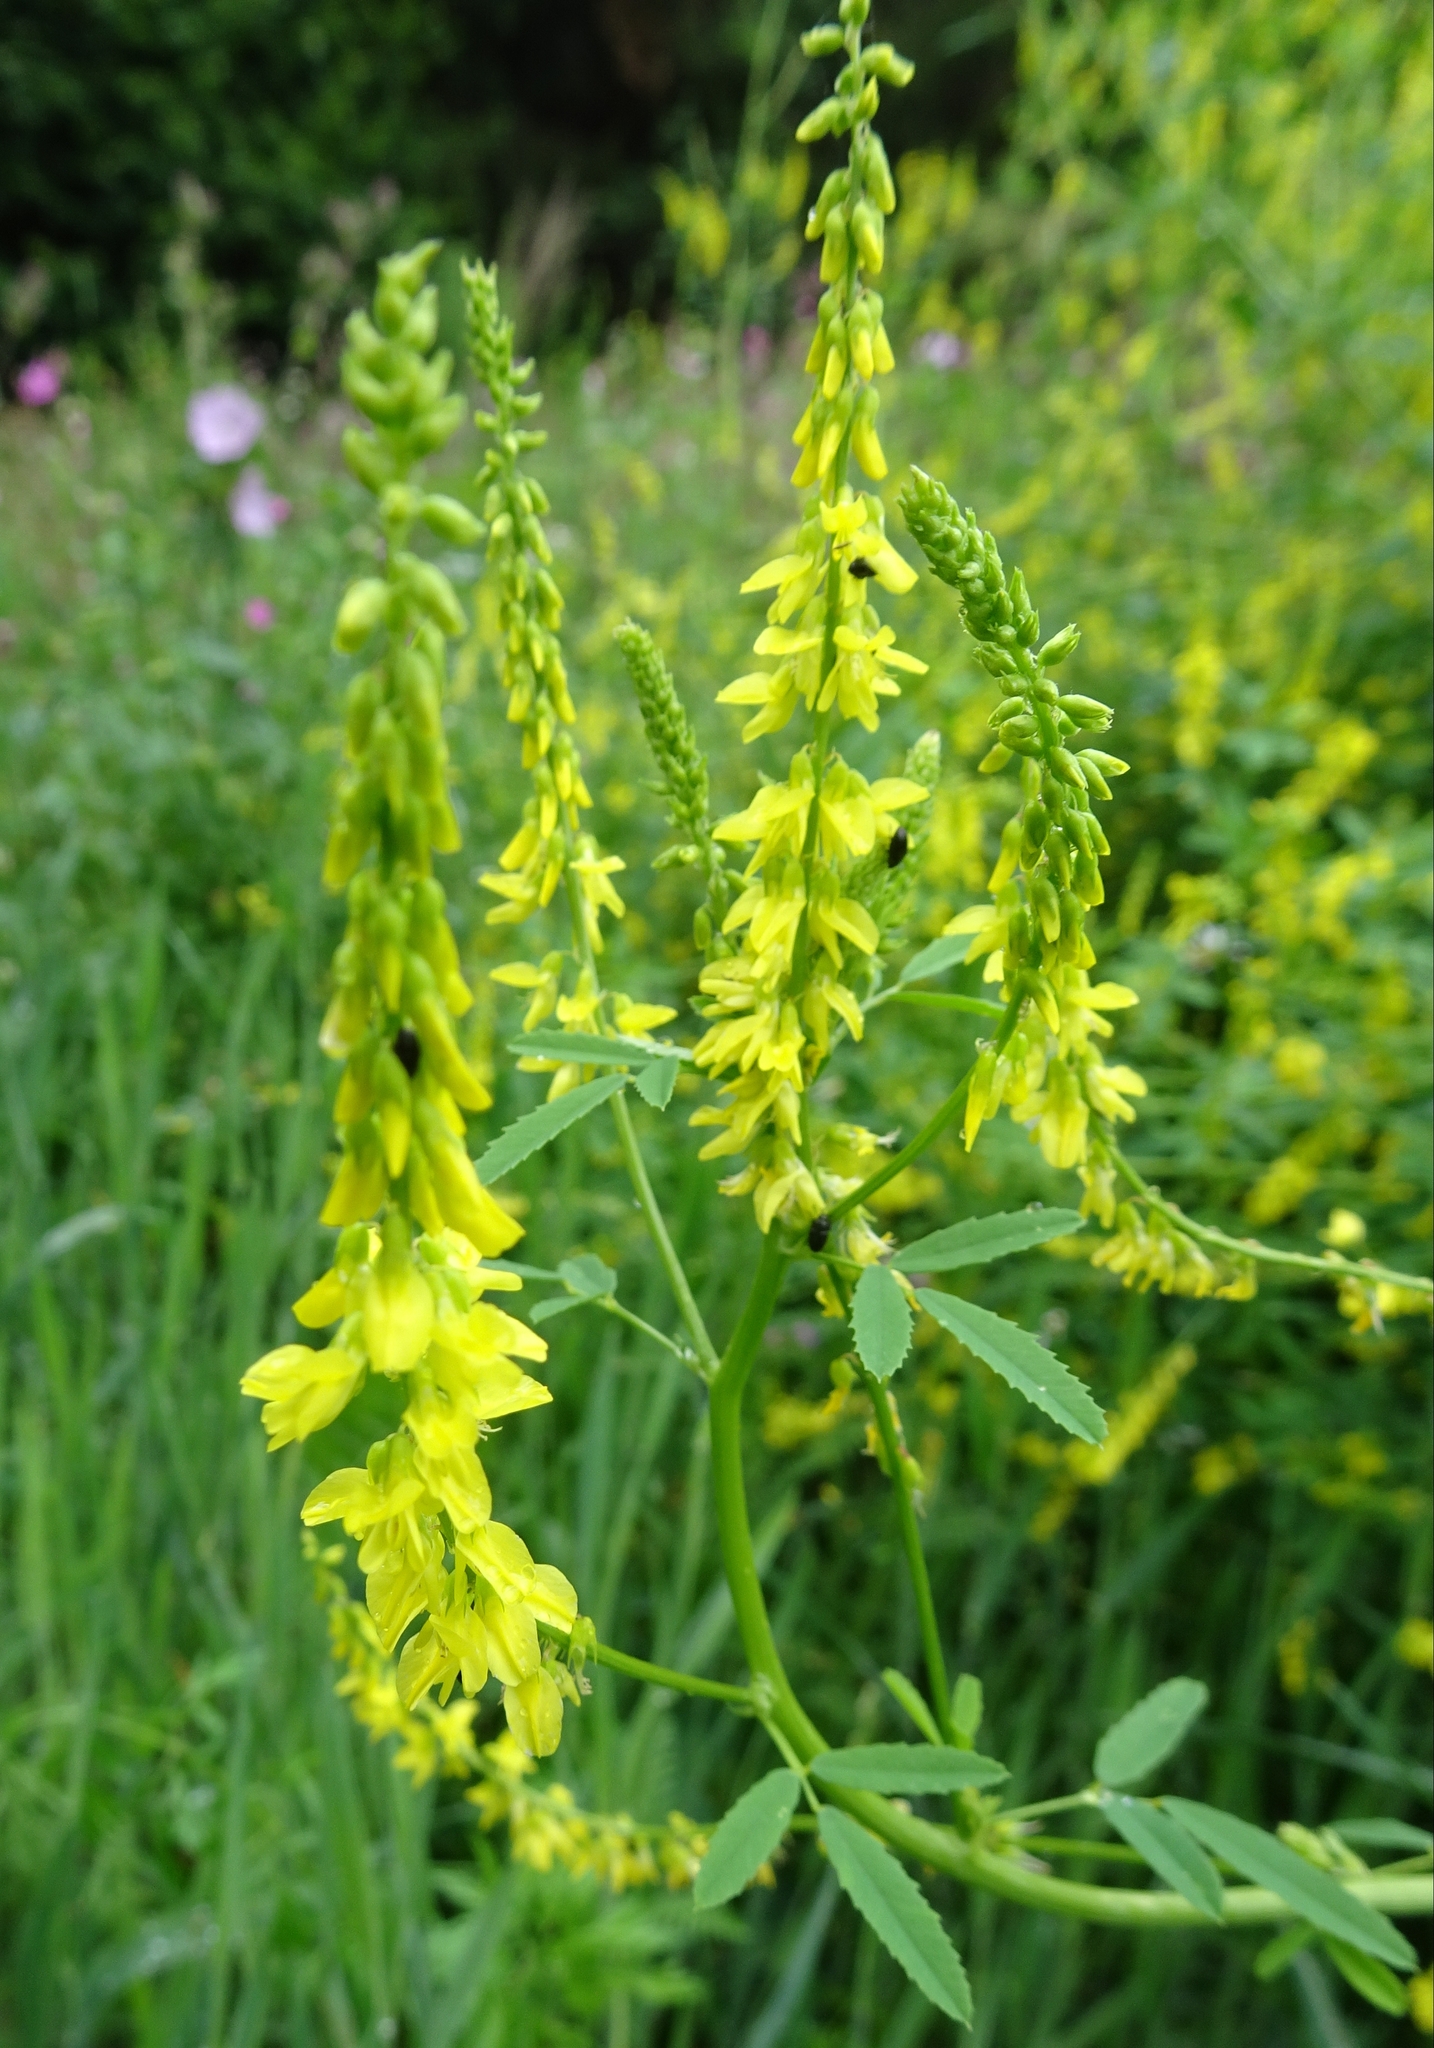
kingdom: Plantae
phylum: Tracheophyta
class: Magnoliopsida
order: Fabales
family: Fabaceae
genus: Melilotus
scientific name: Melilotus officinalis
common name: Sweetclover
